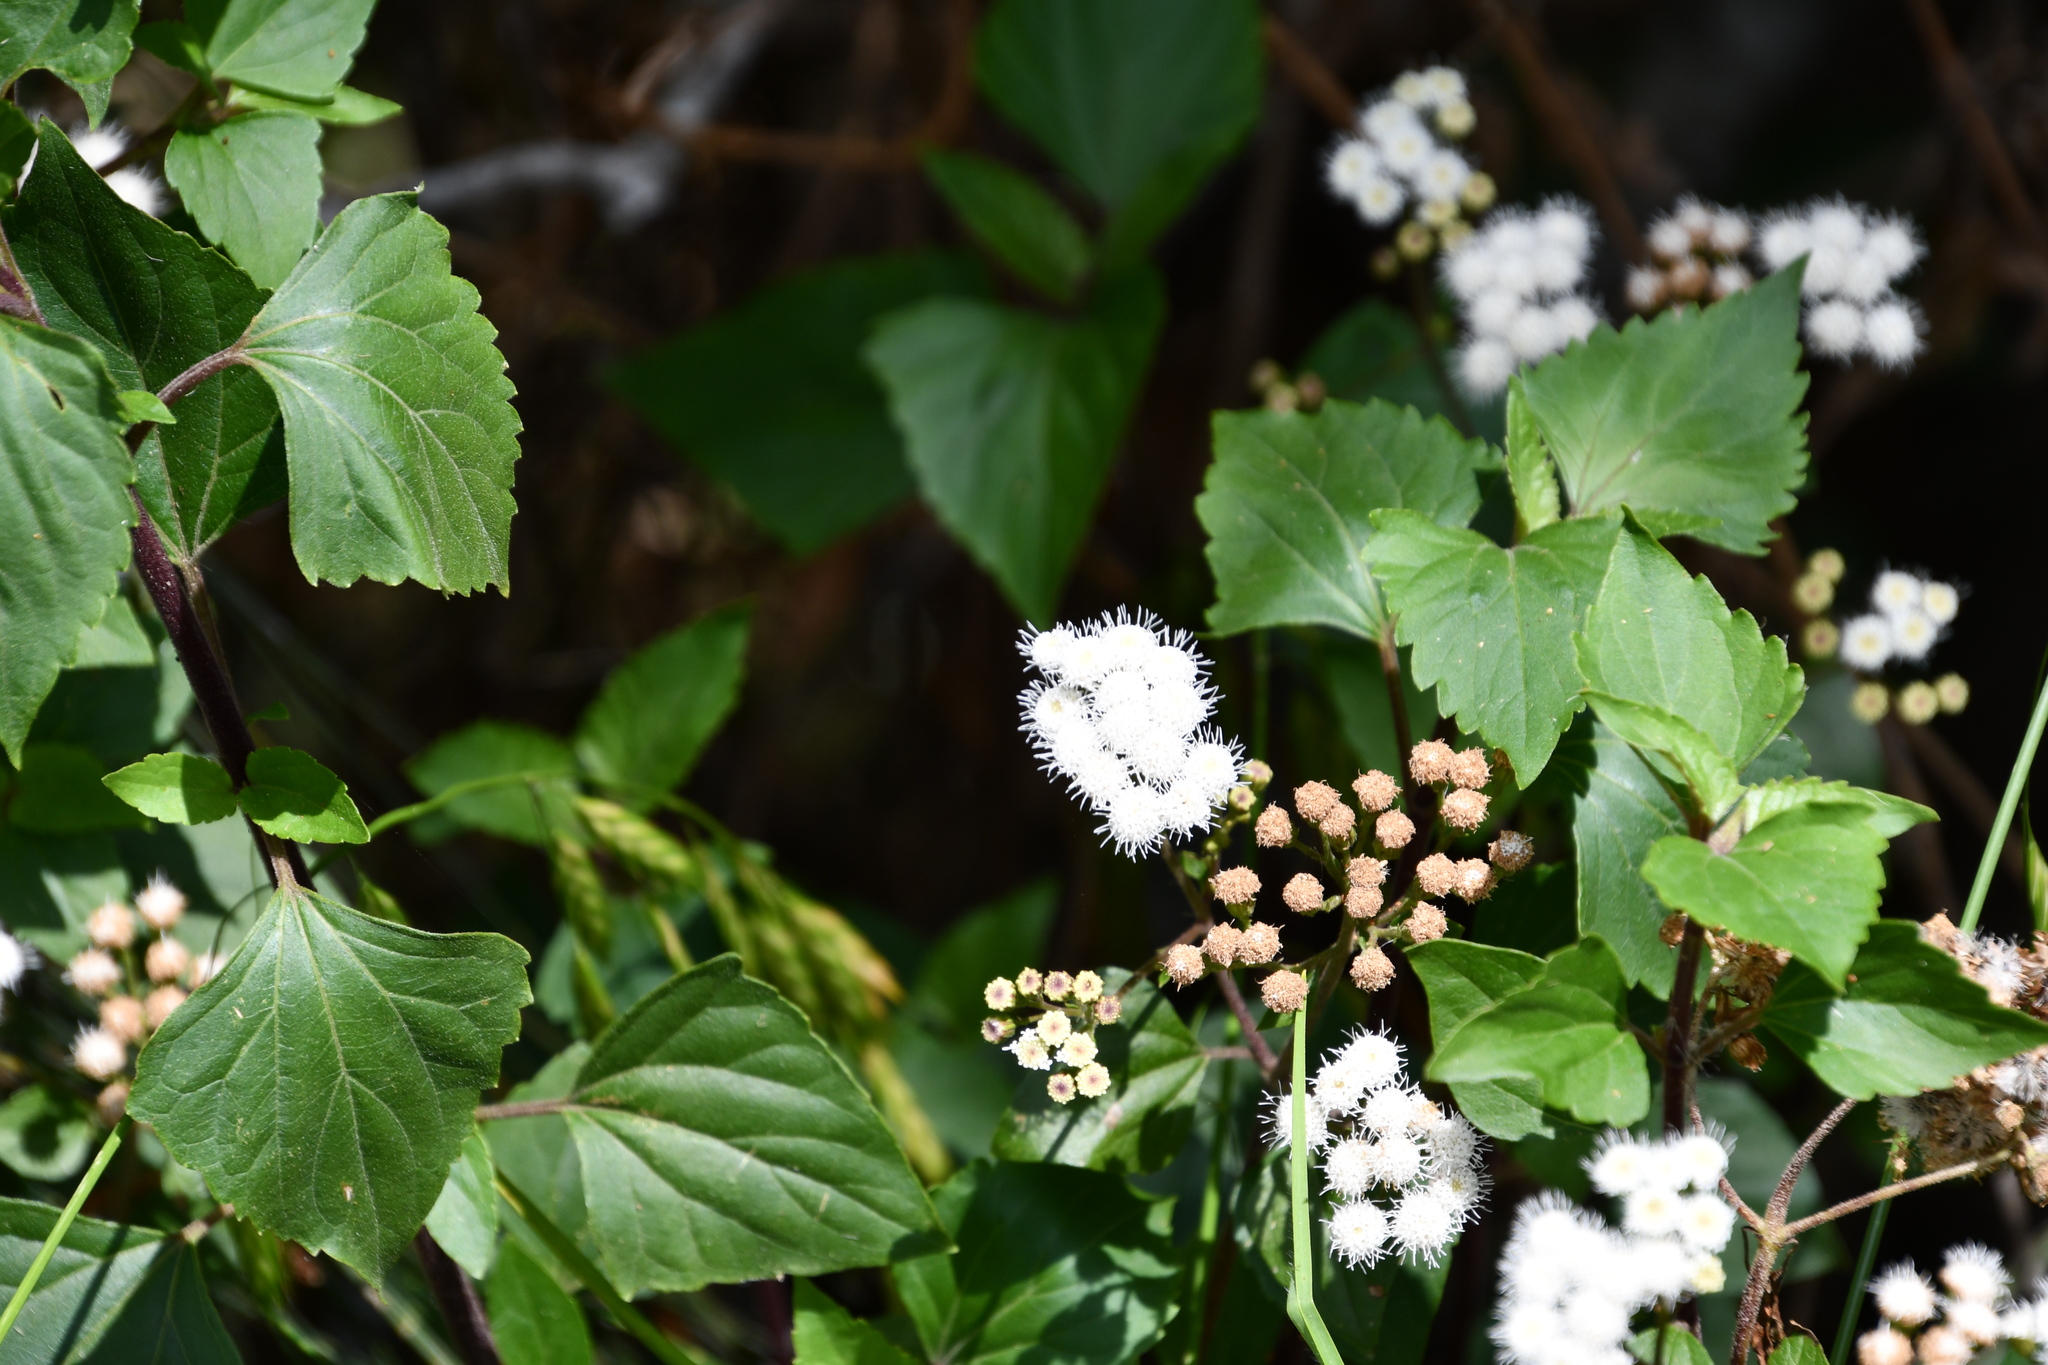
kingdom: Plantae
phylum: Tracheophyta
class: Magnoliopsida
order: Asterales
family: Asteraceae
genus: Ageratina
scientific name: Ageratina adenophora
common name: Sticky snakeroot
